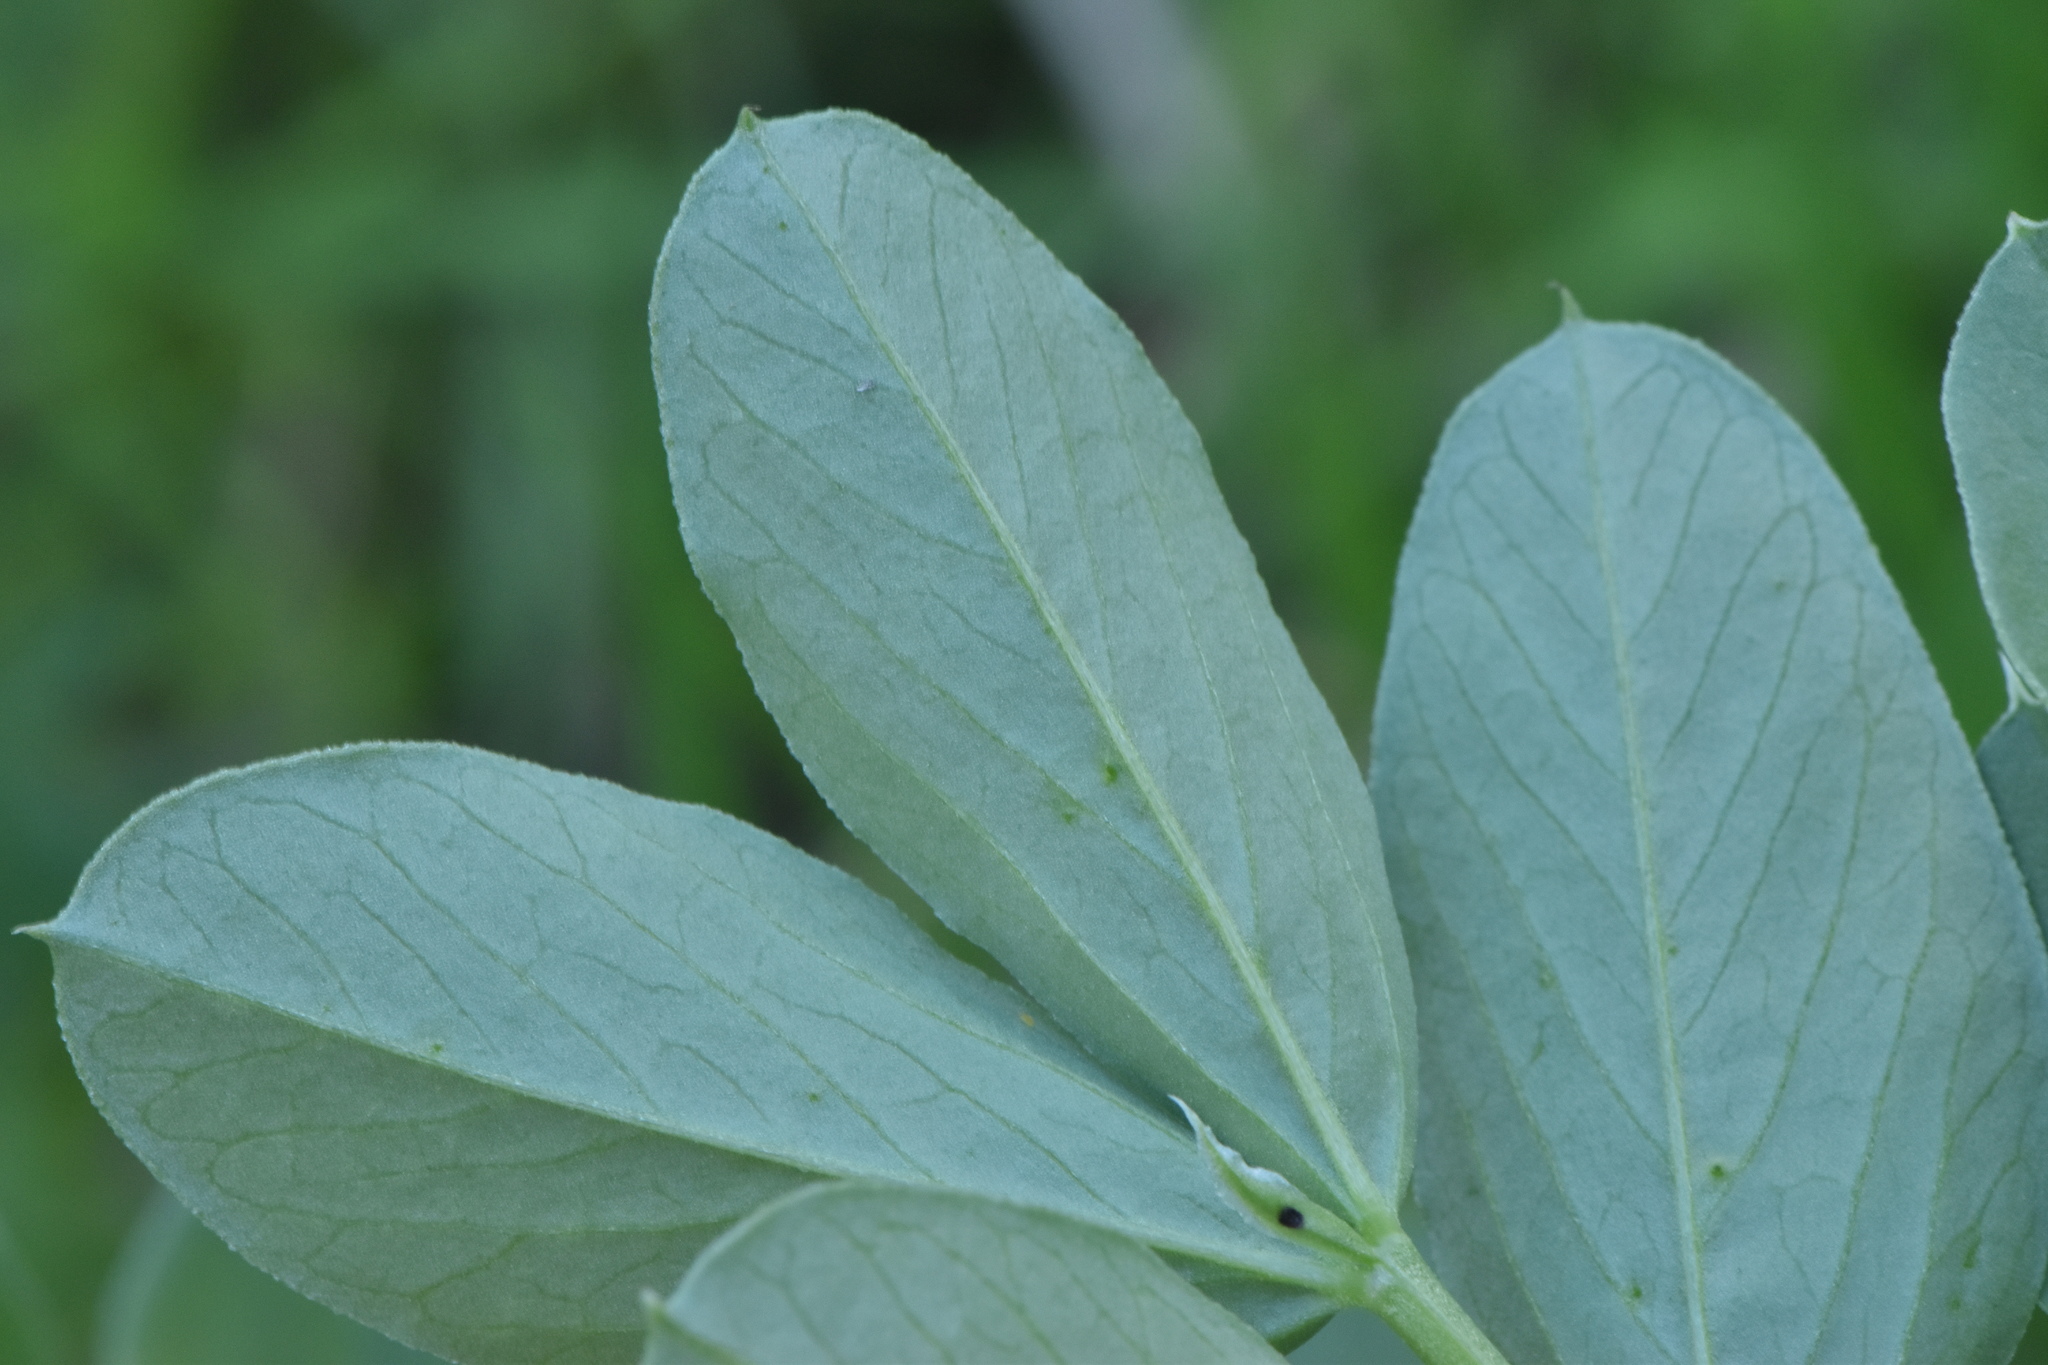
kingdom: Plantae
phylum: Tracheophyta
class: Magnoliopsida
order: Fabales
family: Fabaceae
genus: Vicia
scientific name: Vicia faba
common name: Broad bean
